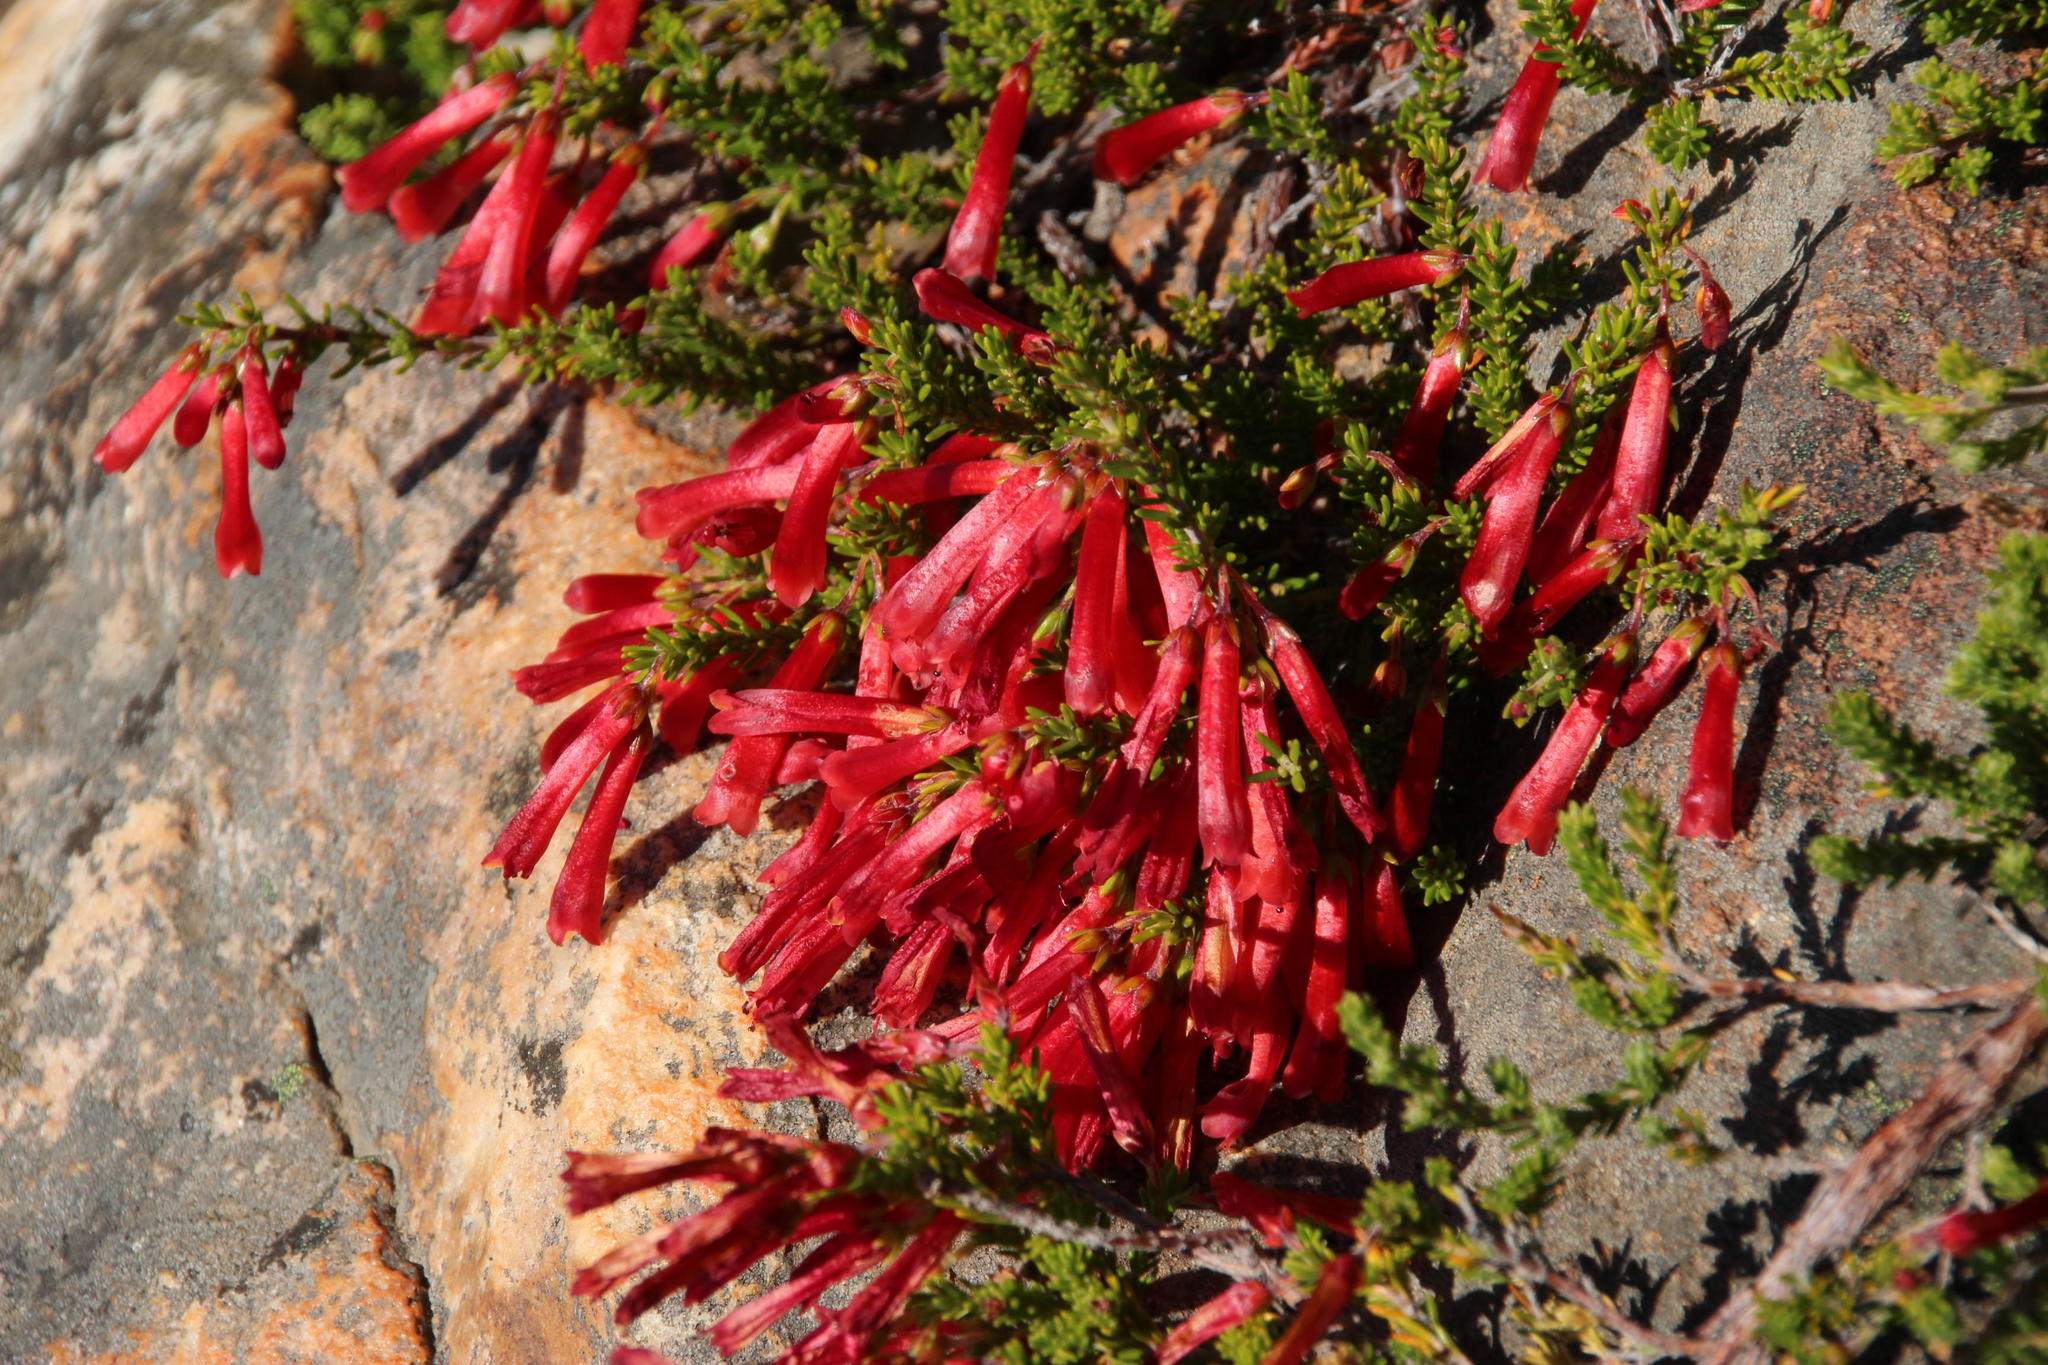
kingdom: Plantae
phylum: Tracheophyta
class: Magnoliopsida
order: Ericales
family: Ericaceae
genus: Erica
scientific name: Erica haematosiphon
